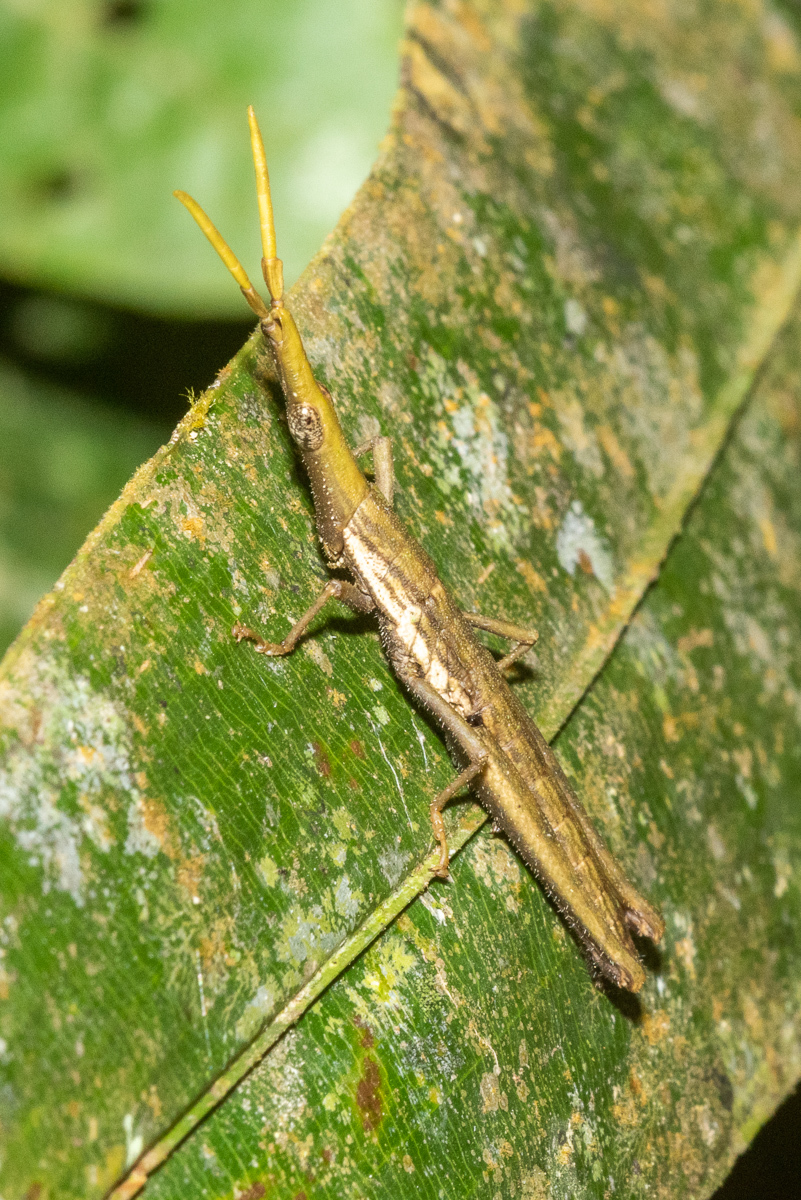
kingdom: Animalia
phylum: Arthropoda
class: Insecta
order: Orthoptera
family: Pyrgomorphidae
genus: Omura
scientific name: Omura congrua
